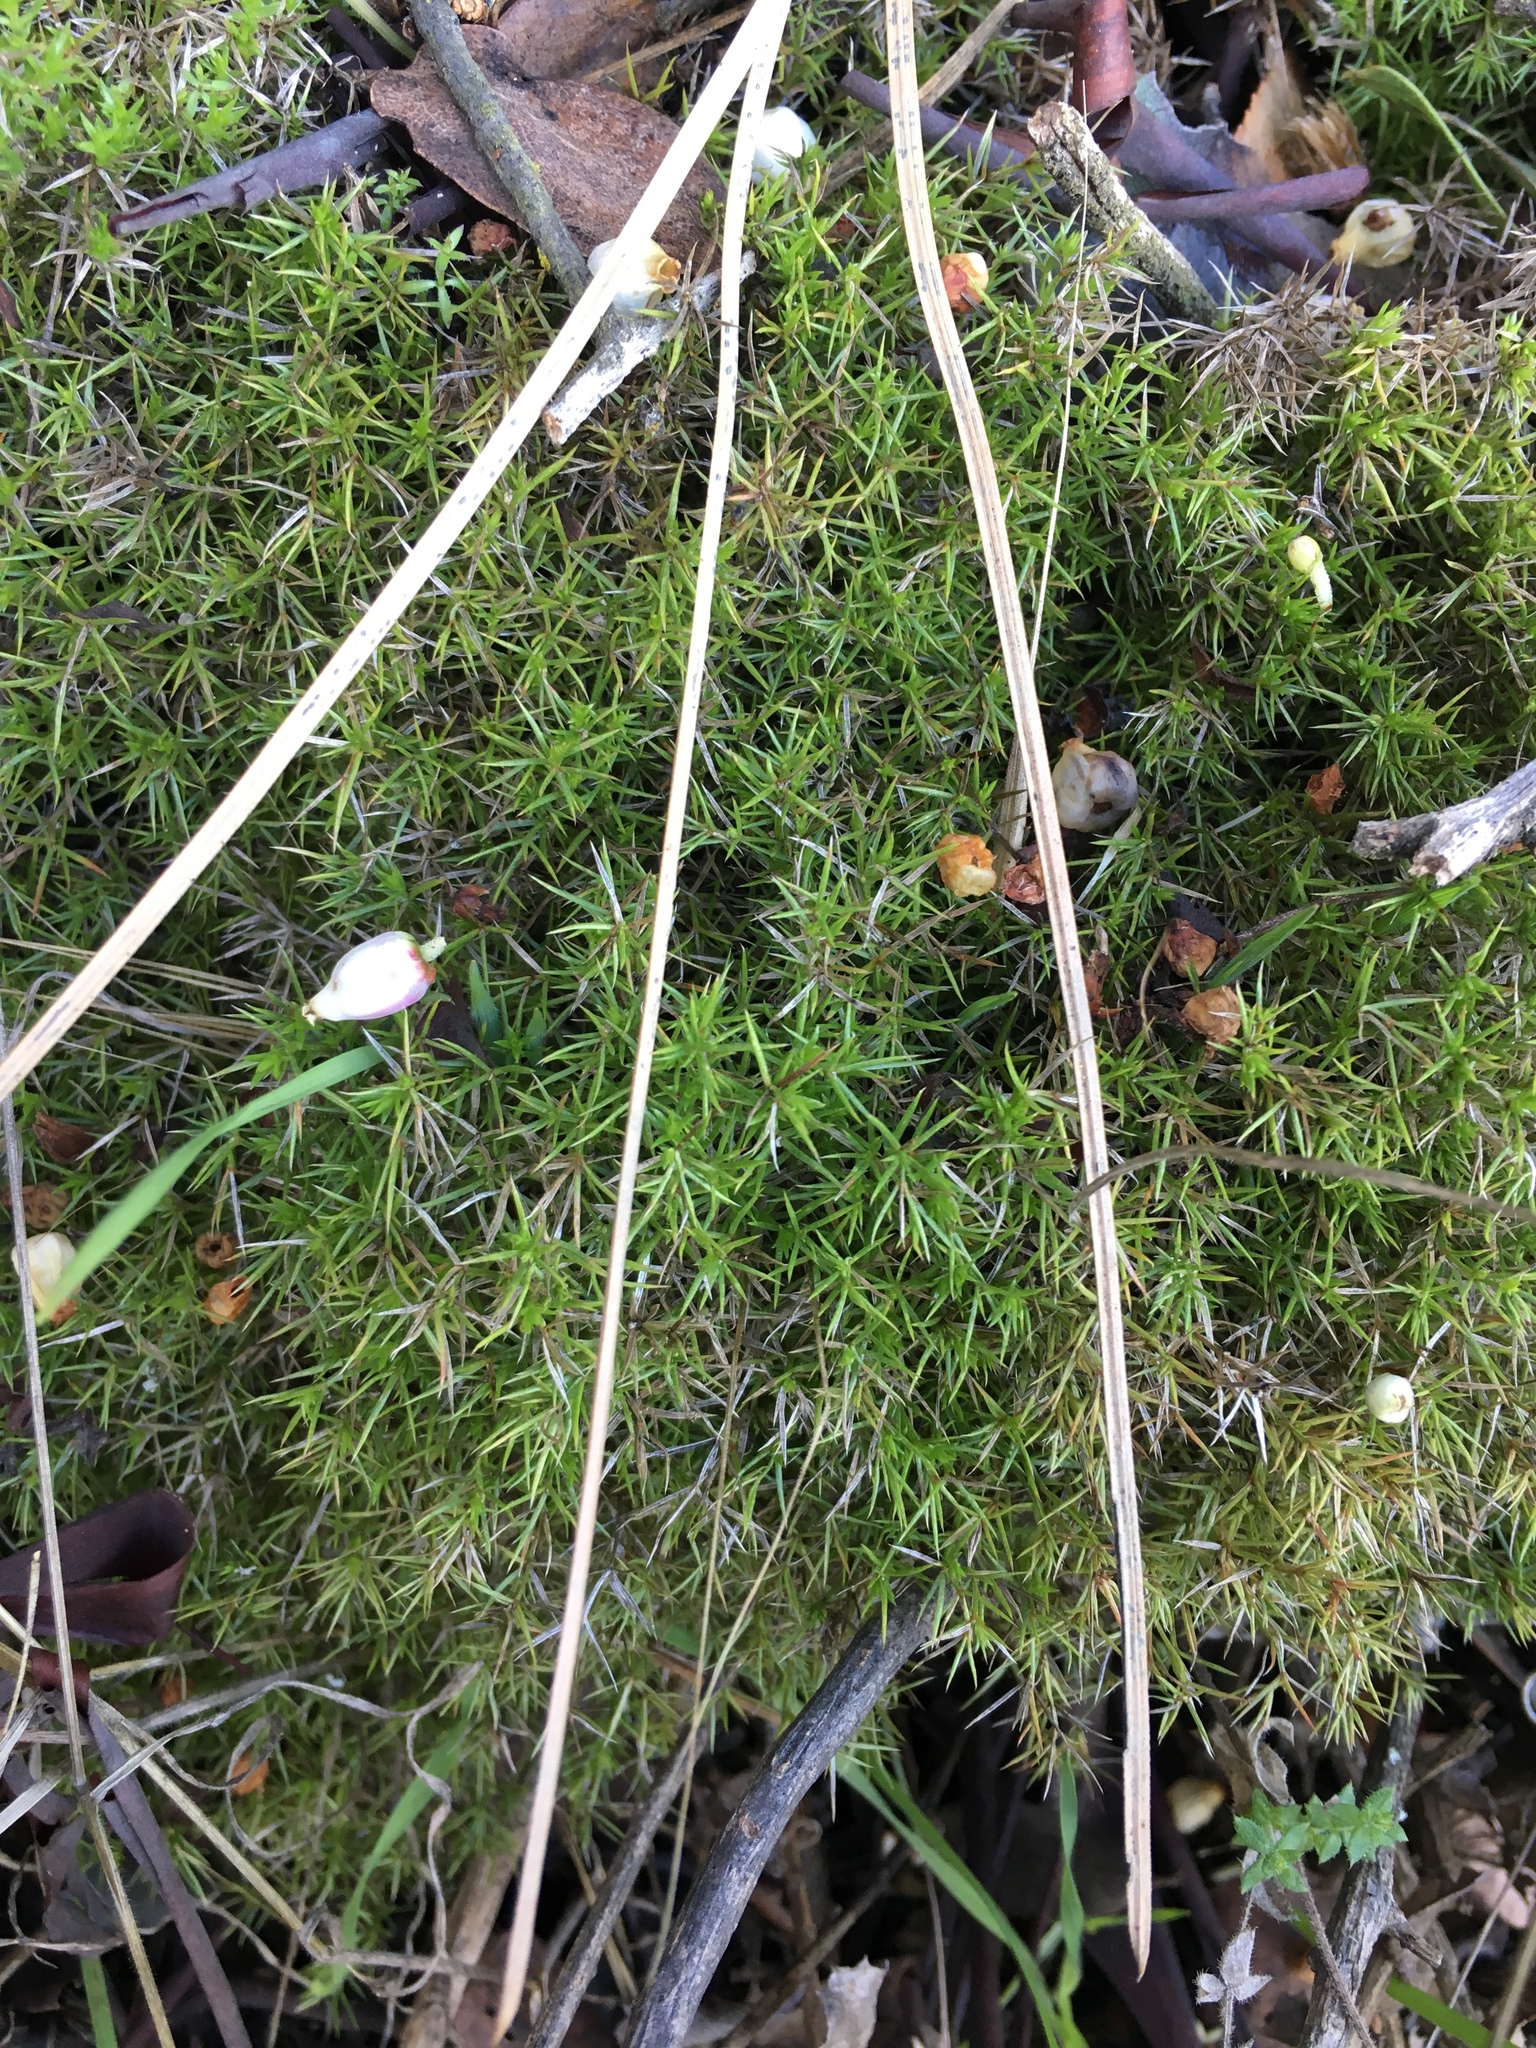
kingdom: Plantae
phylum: Tracheophyta
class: Magnoliopsida
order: Gentianales
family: Rubiaceae
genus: Galium
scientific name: Galium andrewsii
